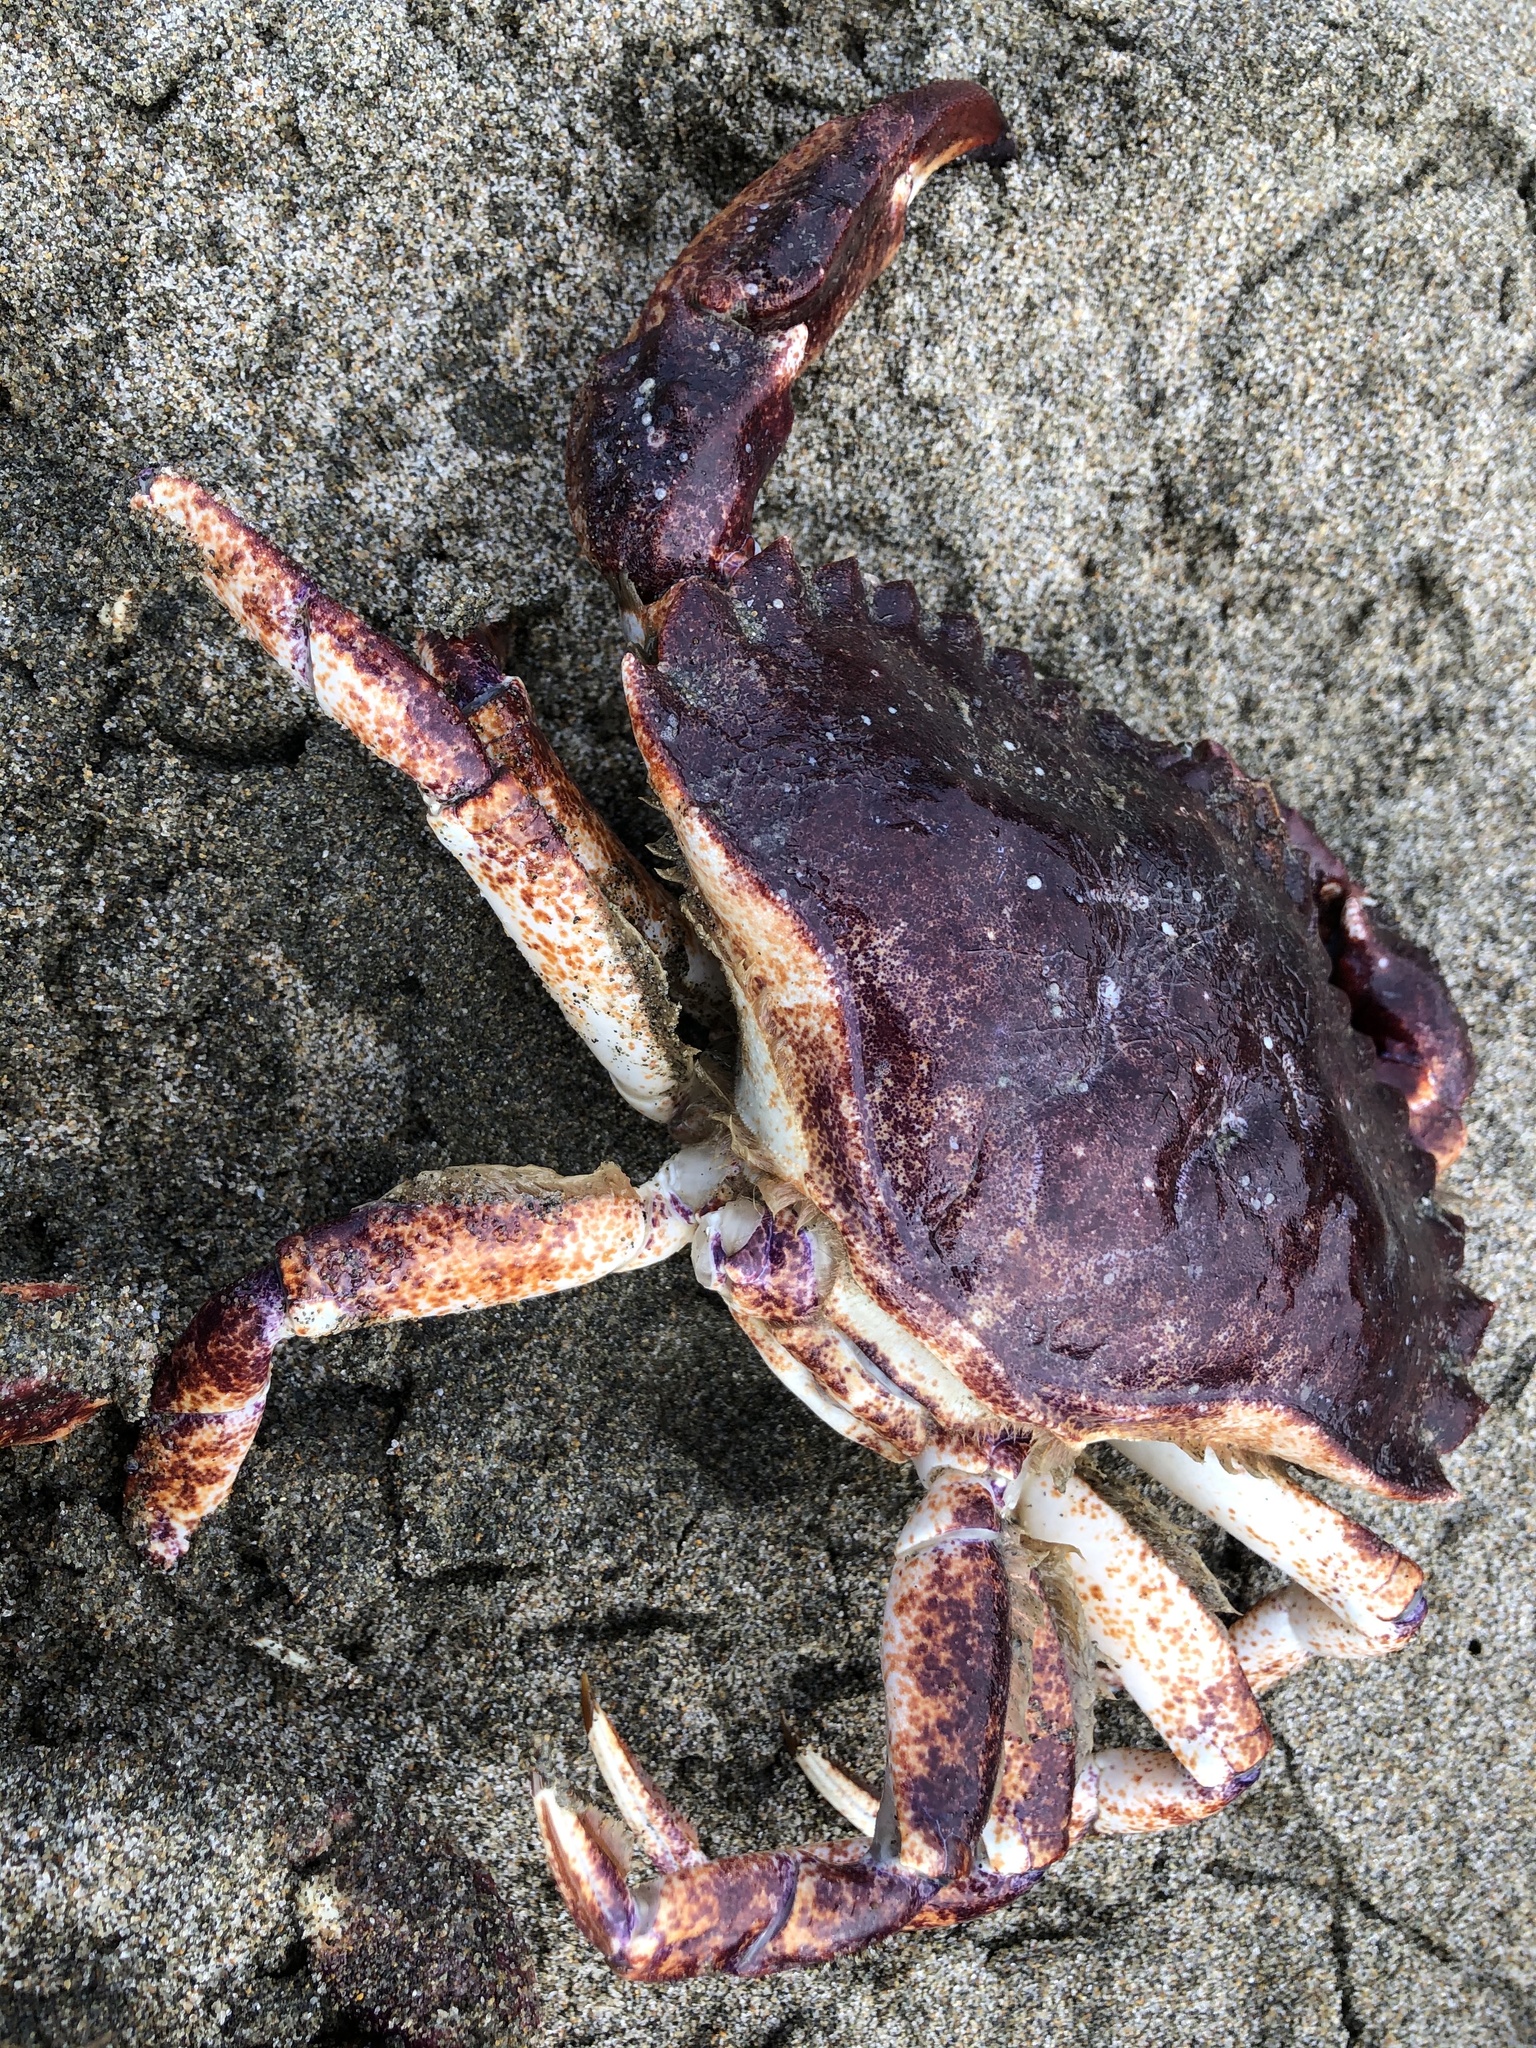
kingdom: Animalia
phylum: Arthropoda
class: Malacostraca
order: Decapoda
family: Cancridae
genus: Cancer
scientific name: Cancer productus
